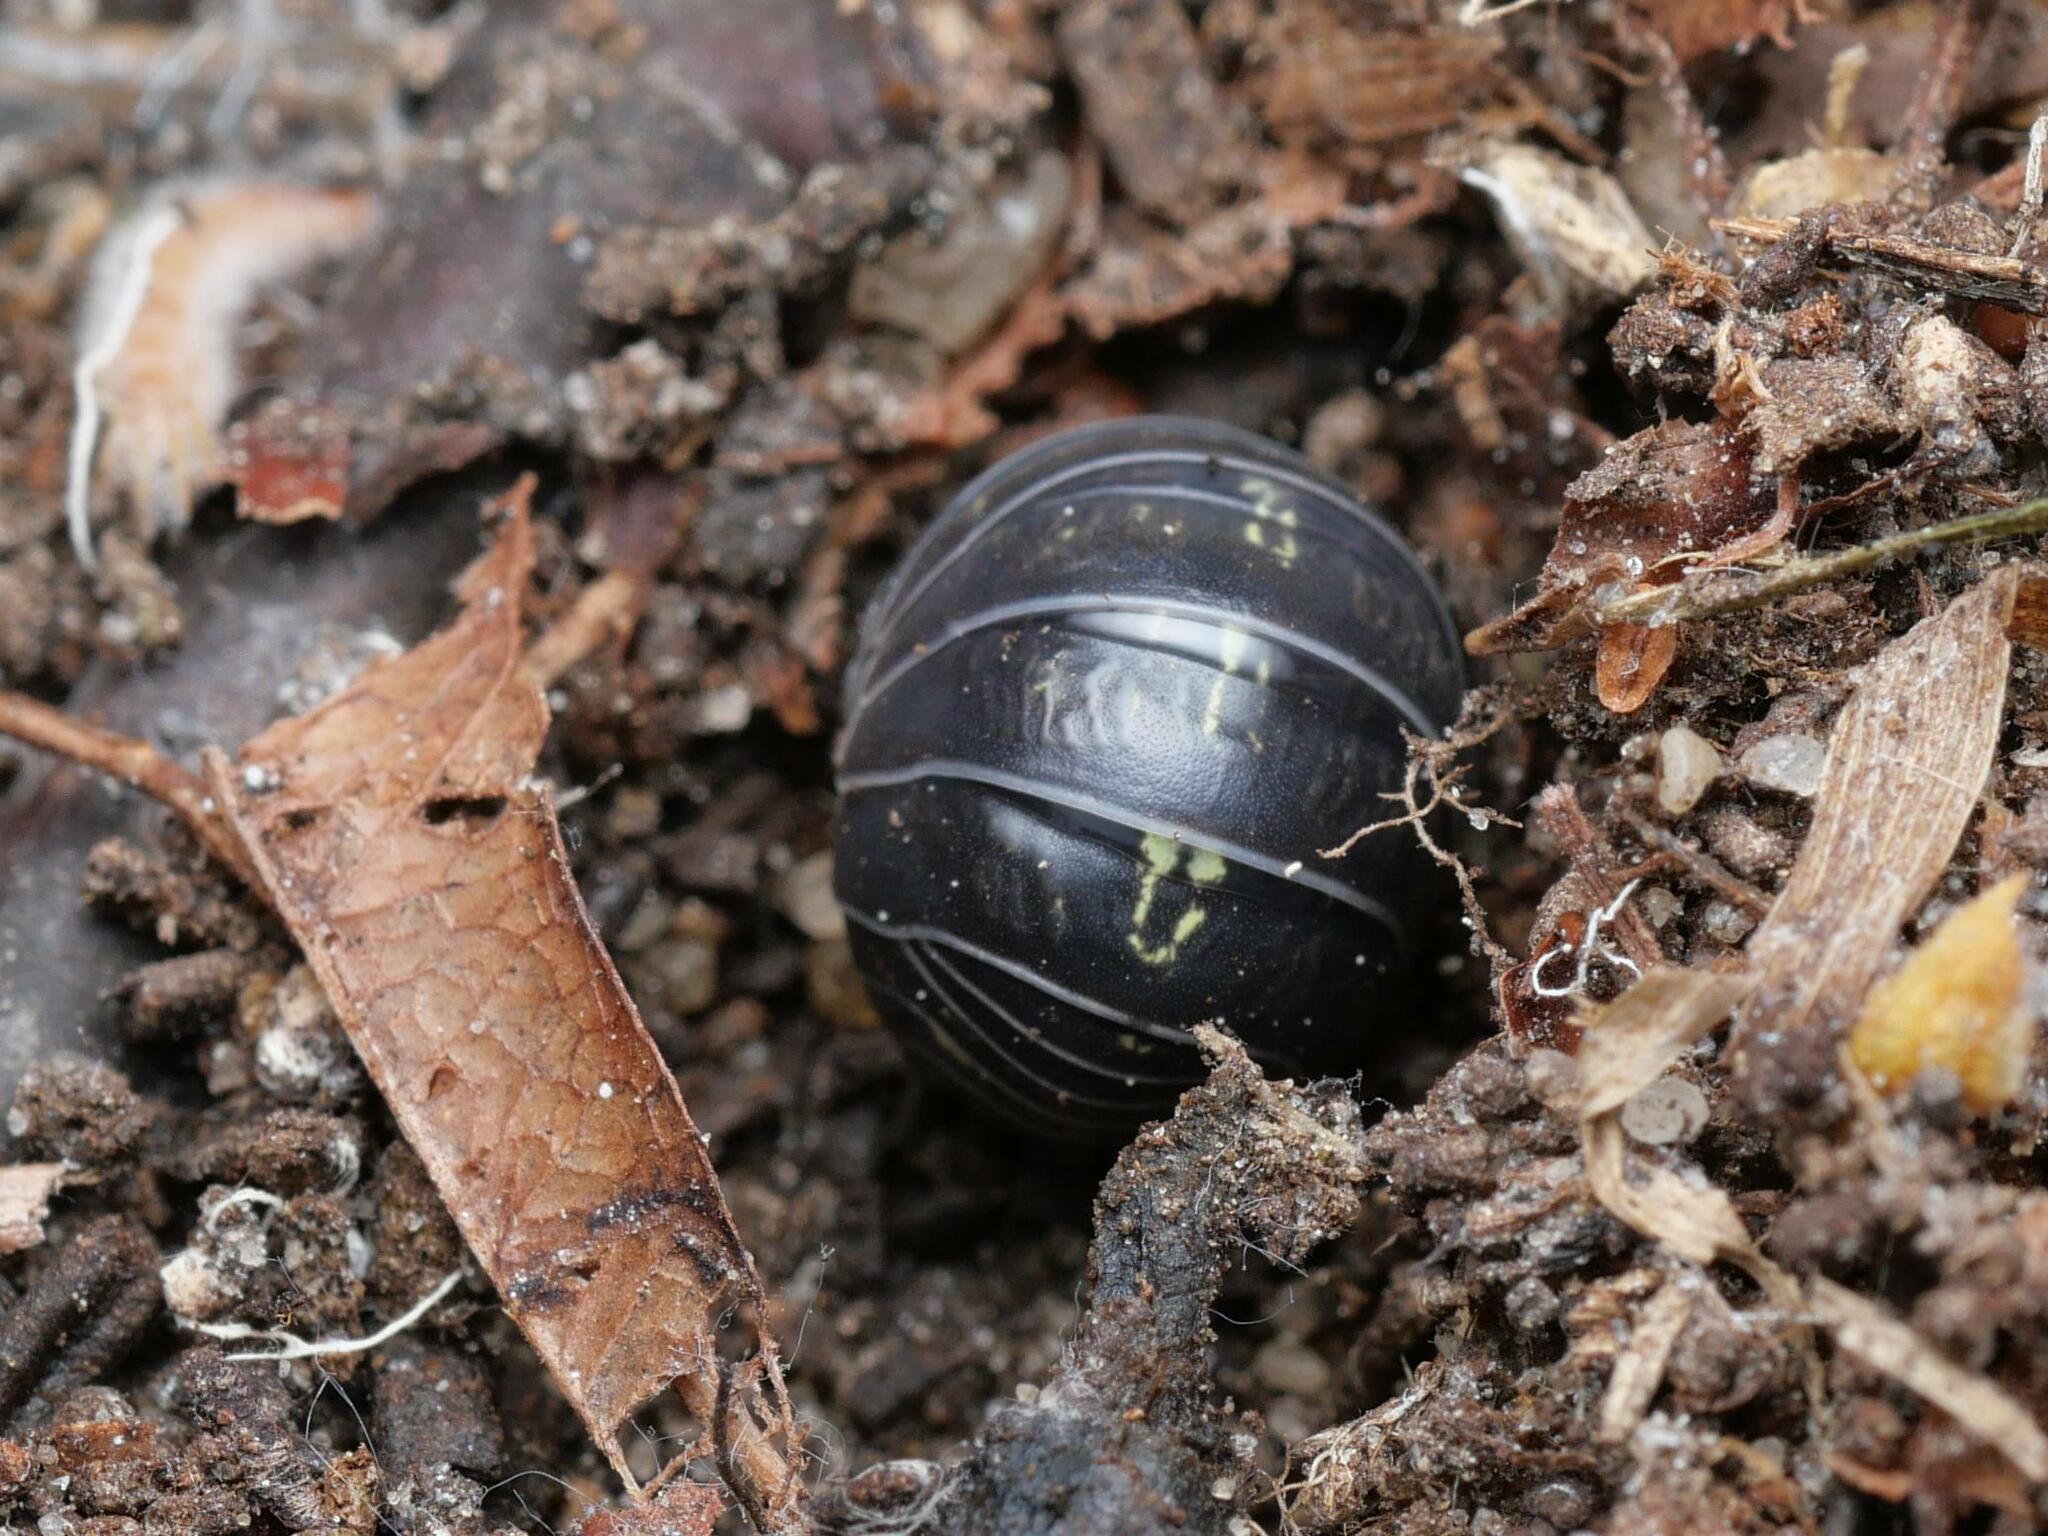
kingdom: Animalia
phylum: Arthropoda
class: Malacostraca
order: Isopoda
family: Armadillidiidae
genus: Armadillidium
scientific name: Armadillidium vulgare
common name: Common pill woodlouse
